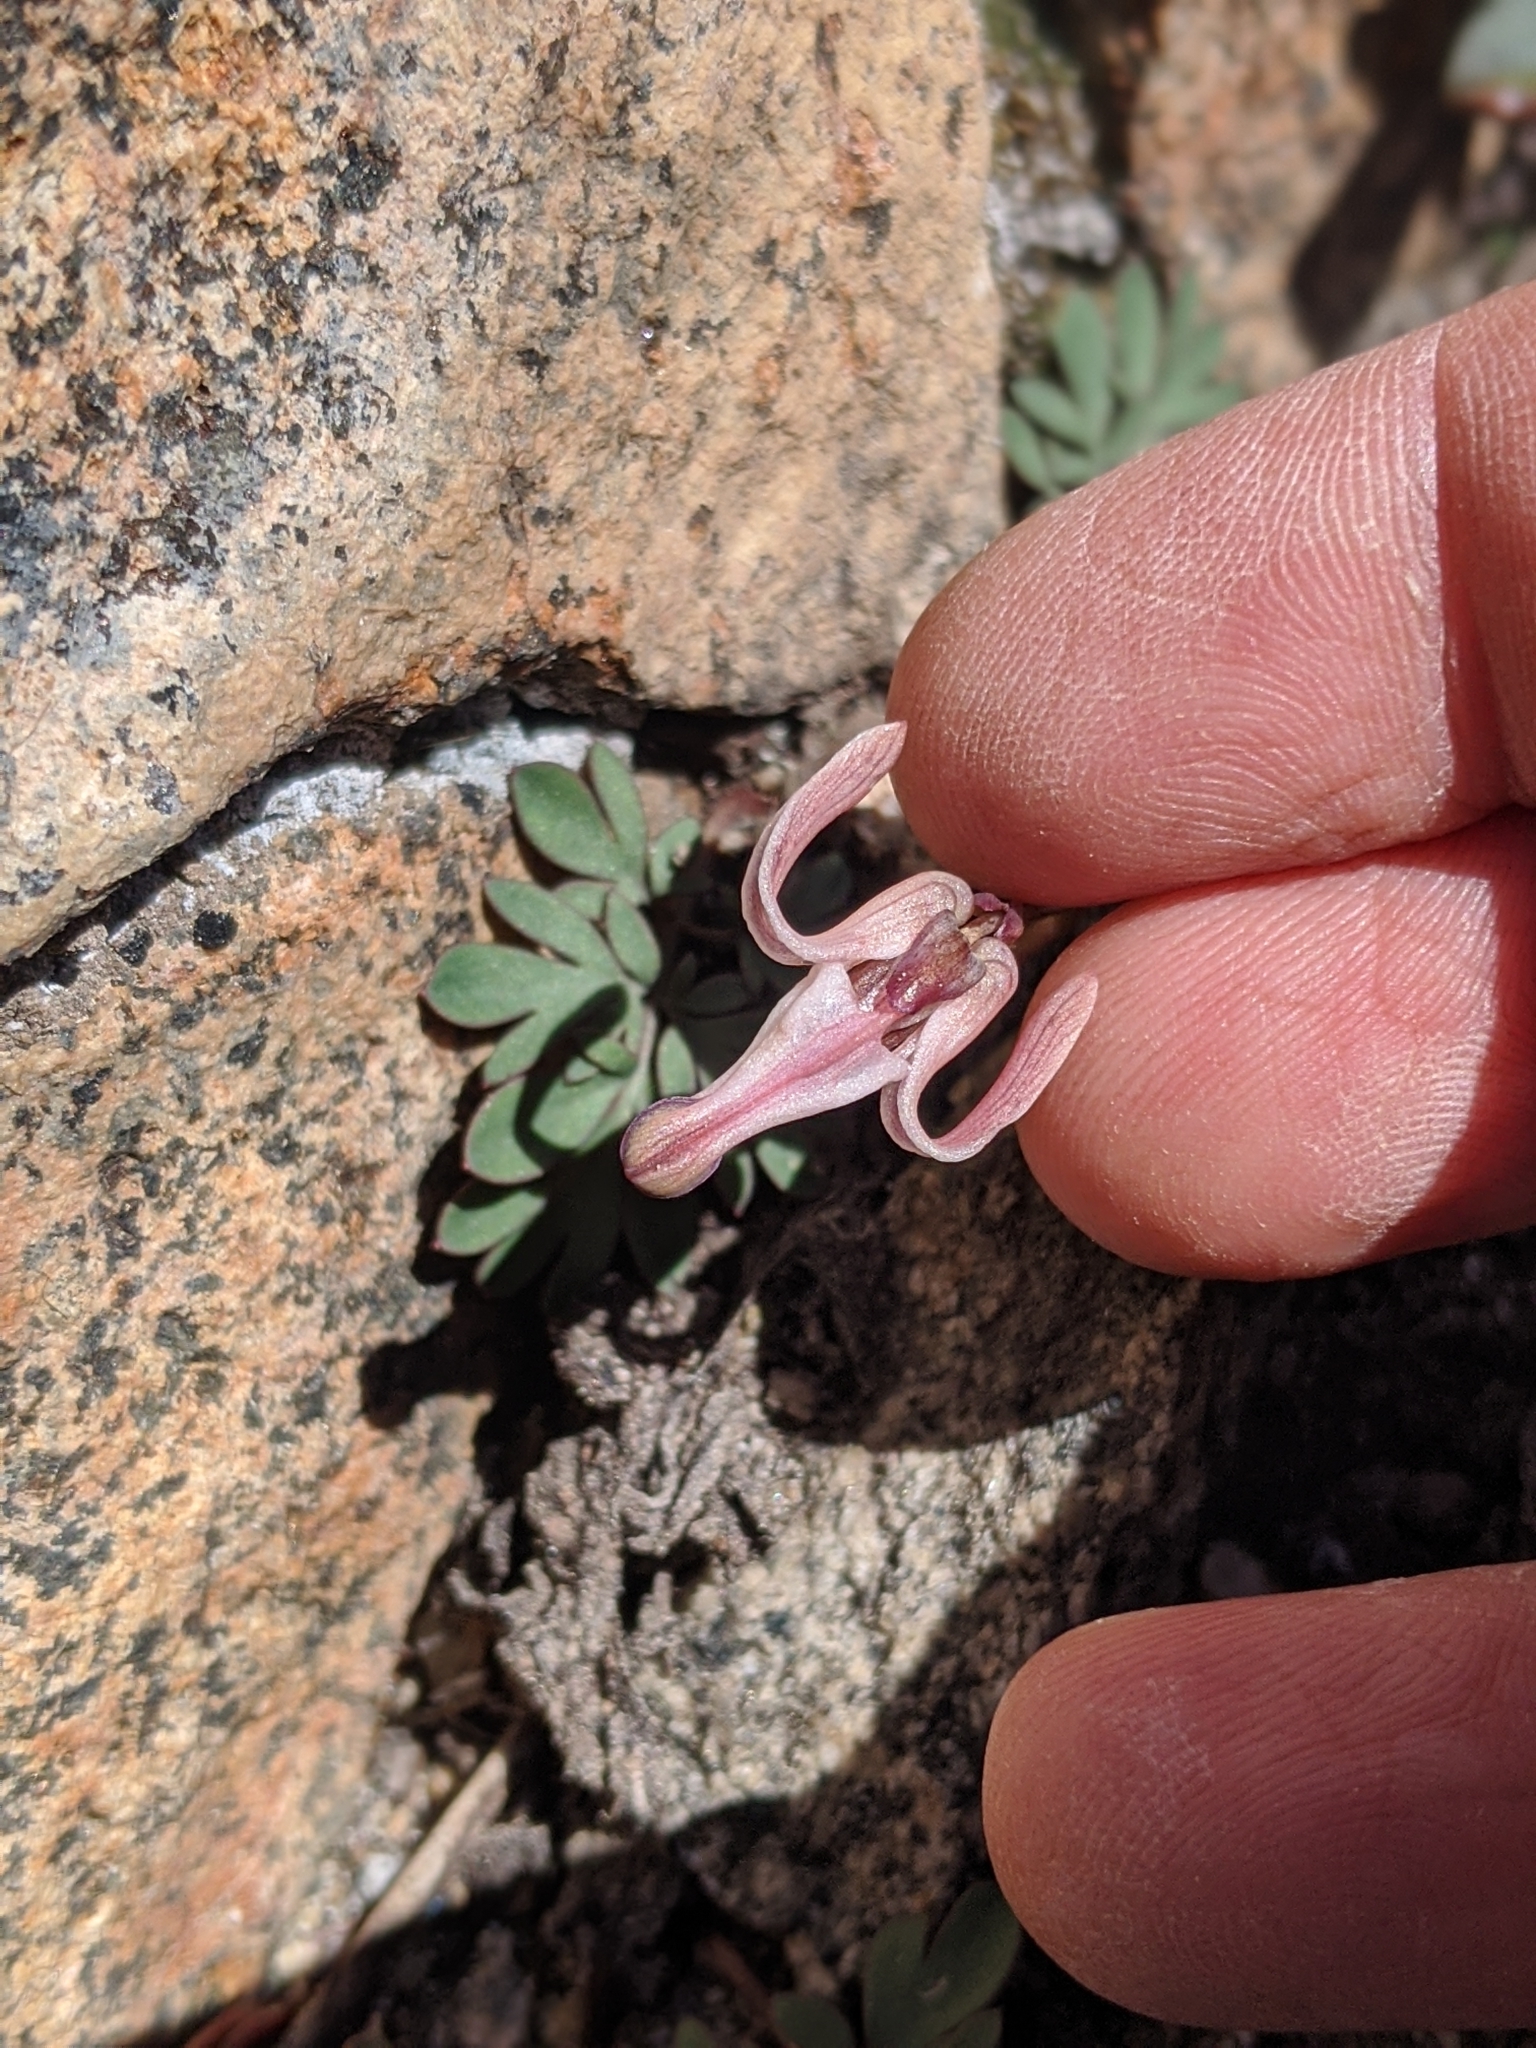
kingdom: Plantae
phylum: Tracheophyta
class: Magnoliopsida
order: Ranunculales
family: Papaveraceae
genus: Dicentra
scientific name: Dicentra uniflora
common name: Steer's-head
